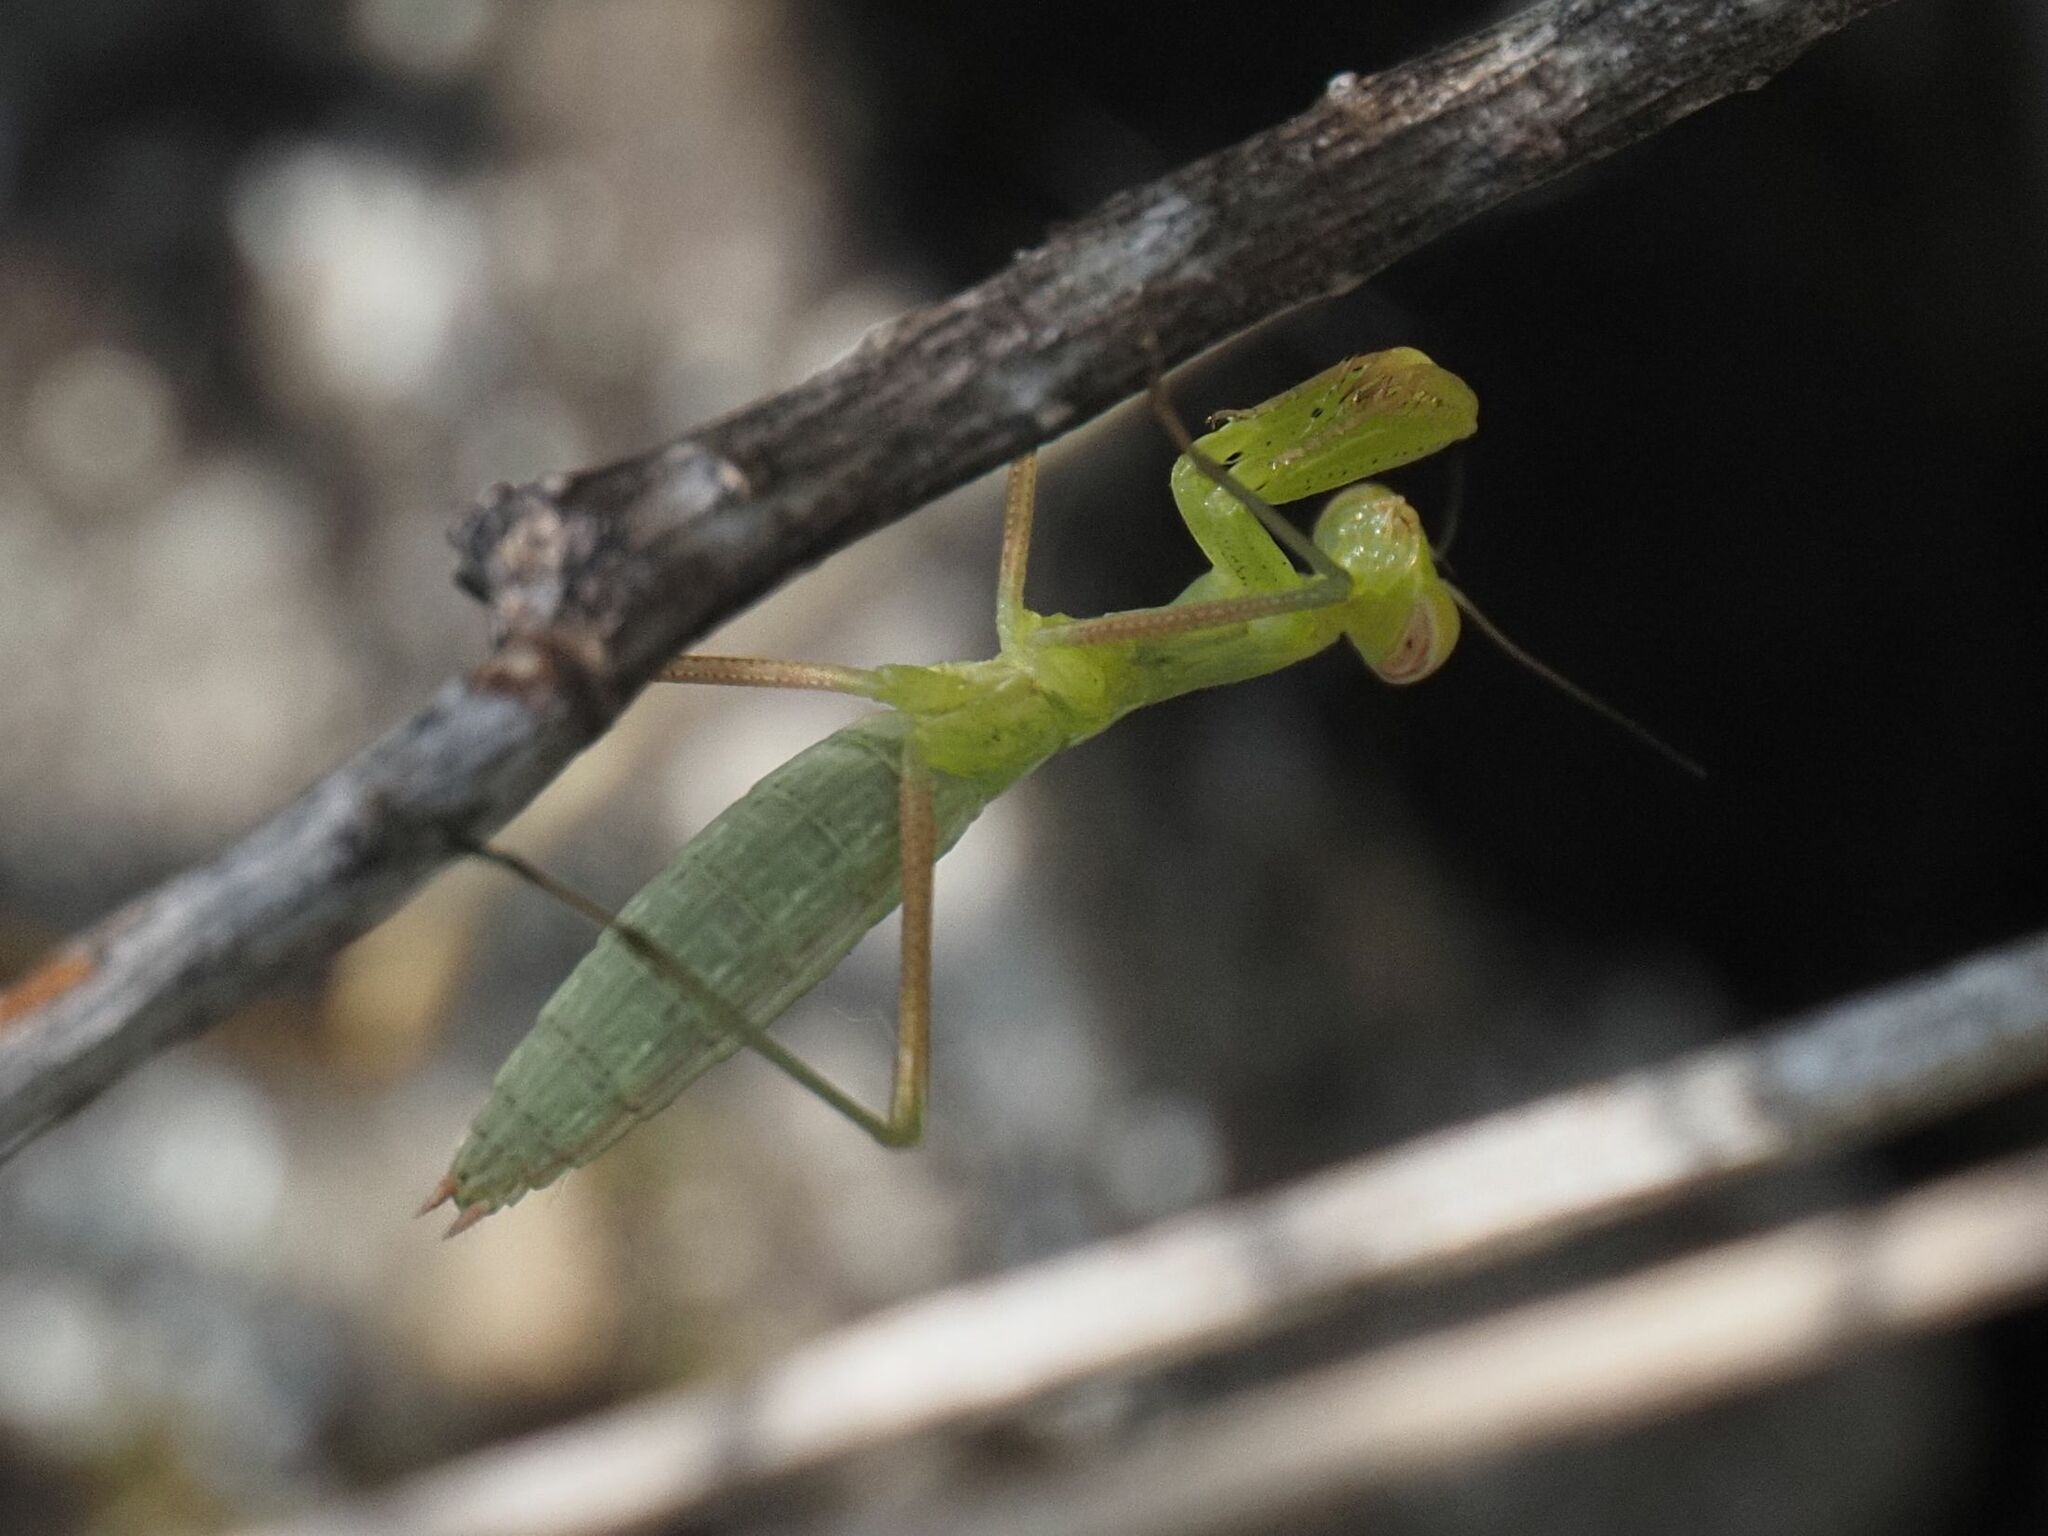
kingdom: Animalia
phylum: Arthropoda
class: Insecta
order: Mantodea
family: Mantidae
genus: Mantis
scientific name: Mantis religiosa
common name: Praying mantis
